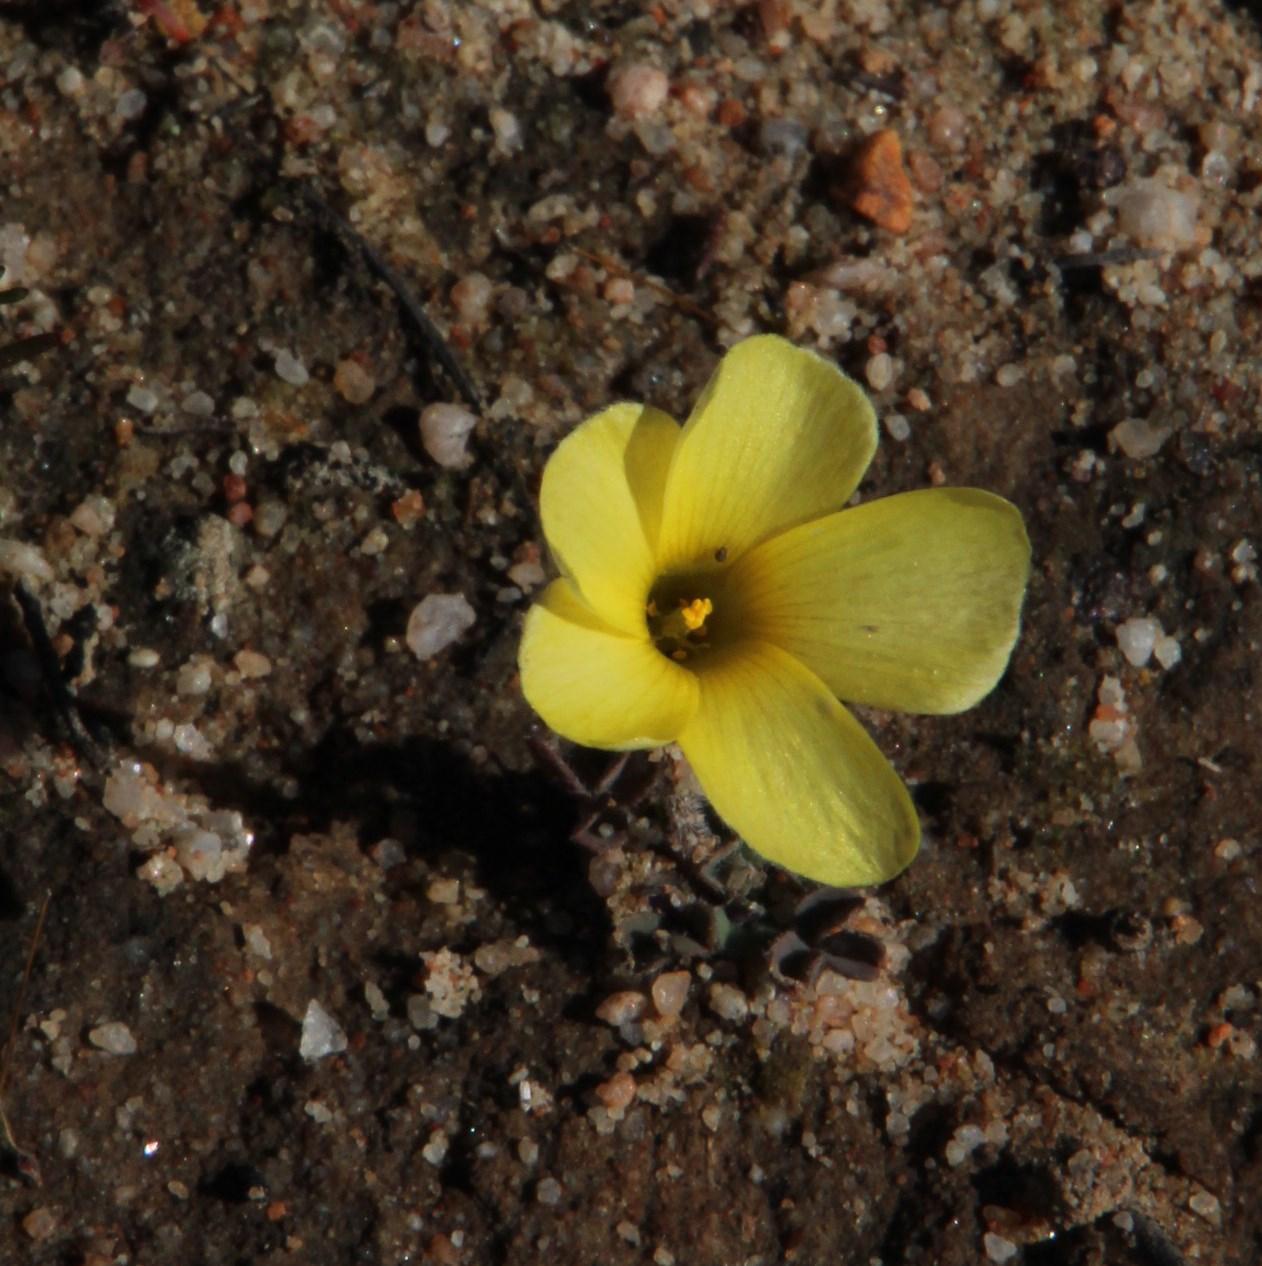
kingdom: Plantae
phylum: Tracheophyta
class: Magnoliopsida
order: Oxalidales
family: Oxalidaceae
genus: Oxalis
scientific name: Oxalis obtusa
